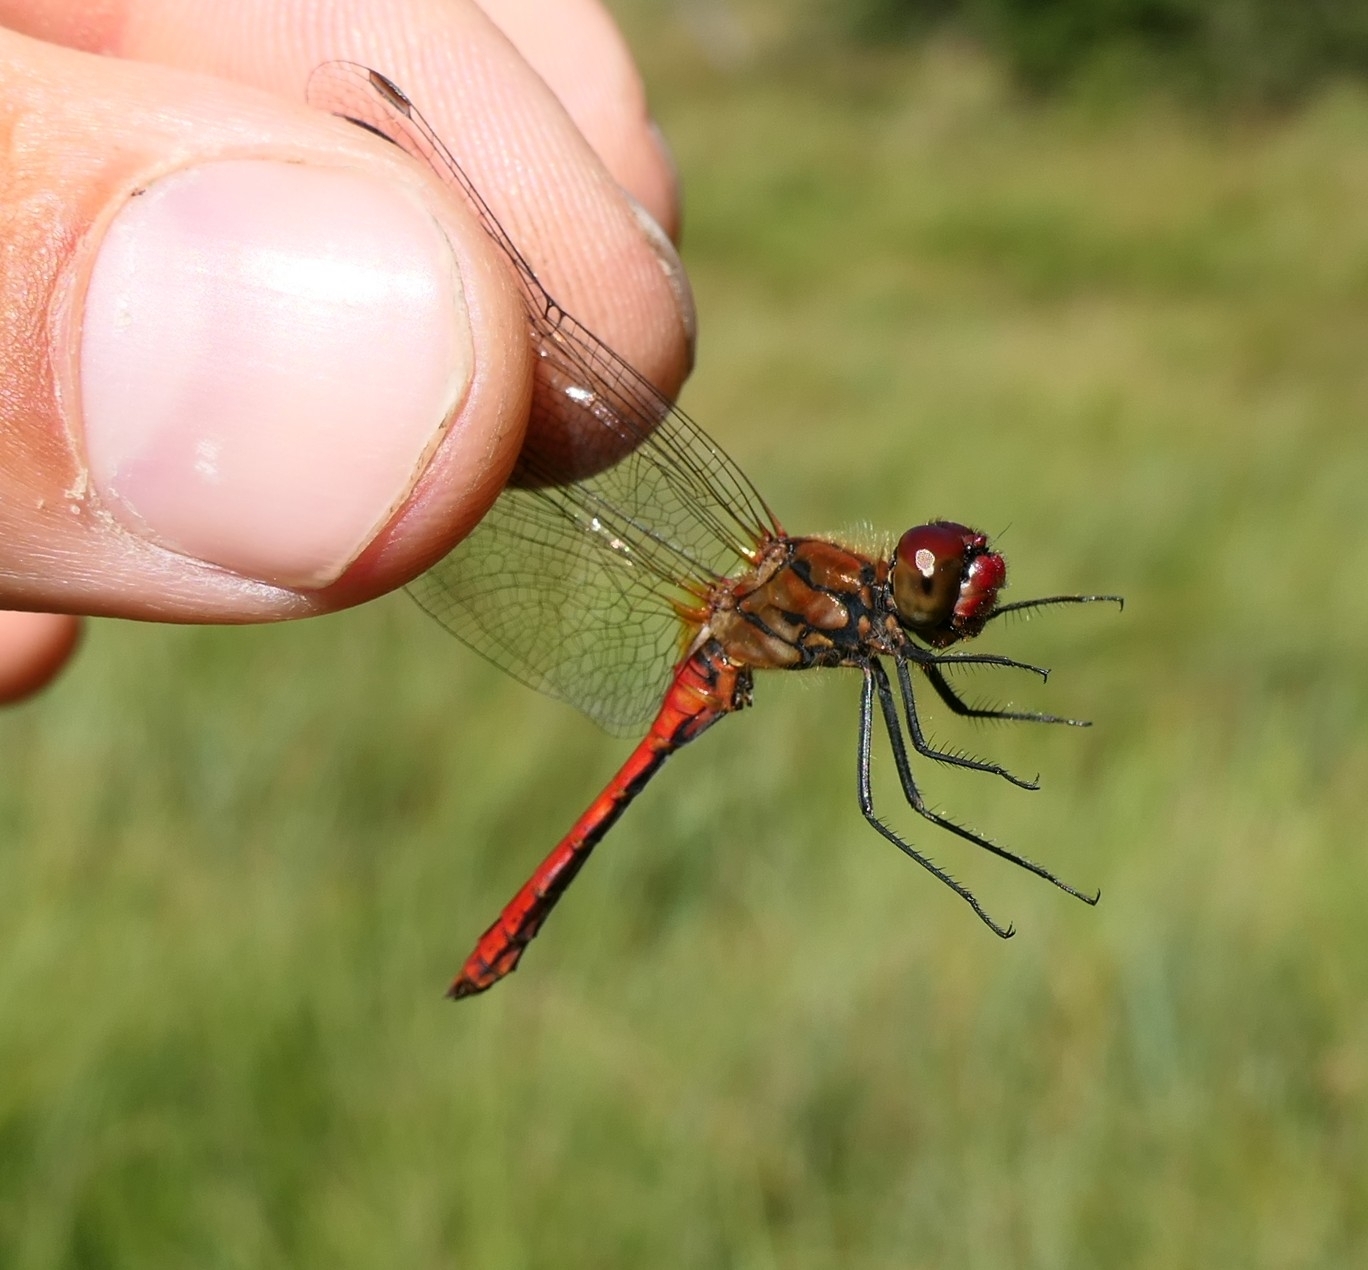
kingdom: Animalia
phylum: Arthropoda
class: Insecta
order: Odonata
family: Libellulidae
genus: Sympetrum
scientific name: Sympetrum sanguineum
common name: Ruddy darter
